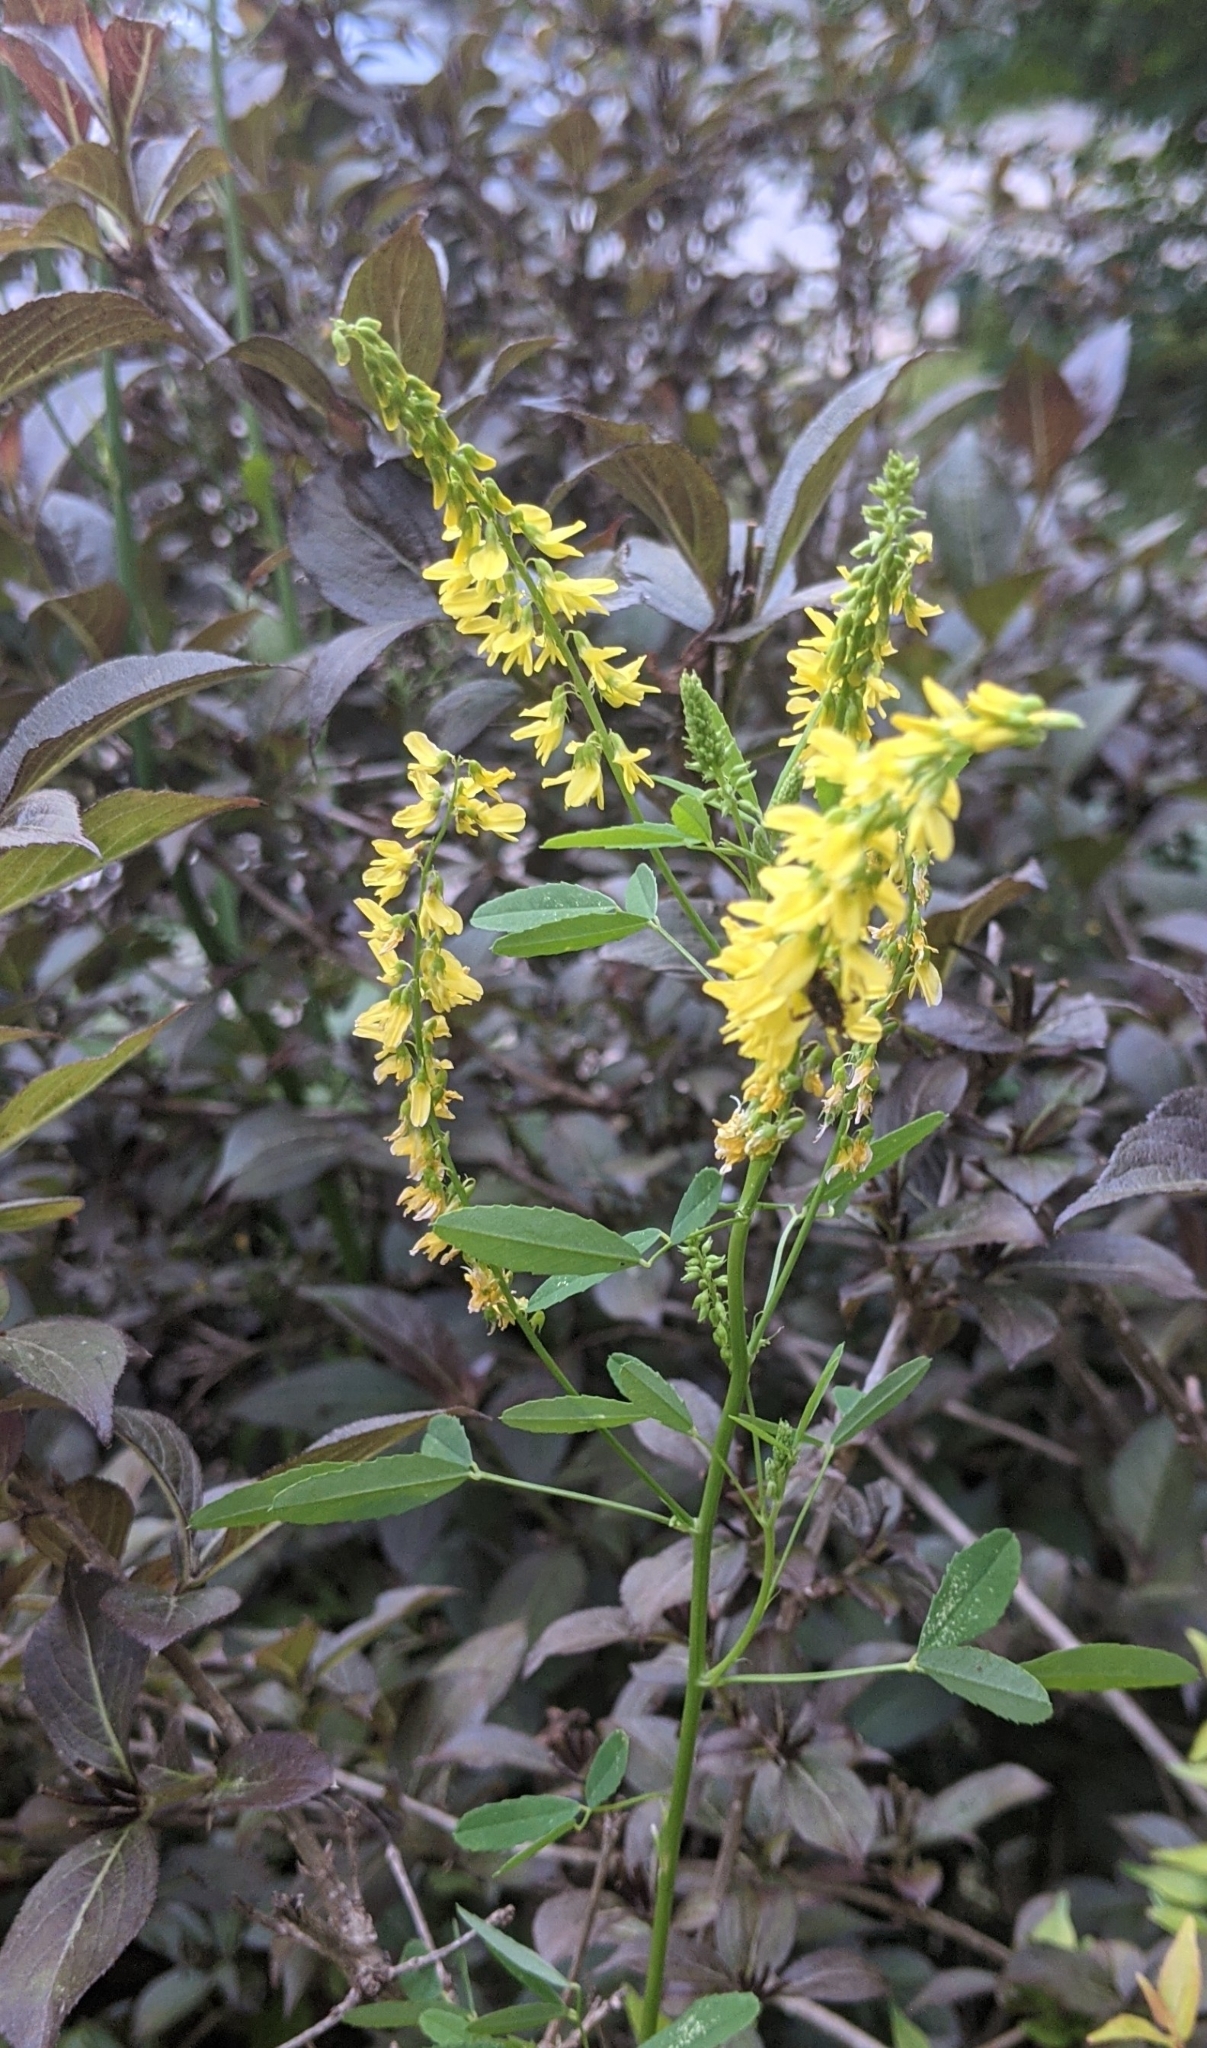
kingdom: Plantae
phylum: Tracheophyta
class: Magnoliopsida
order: Fabales
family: Fabaceae
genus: Melilotus
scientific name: Melilotus officinalis
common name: Sweetclover
